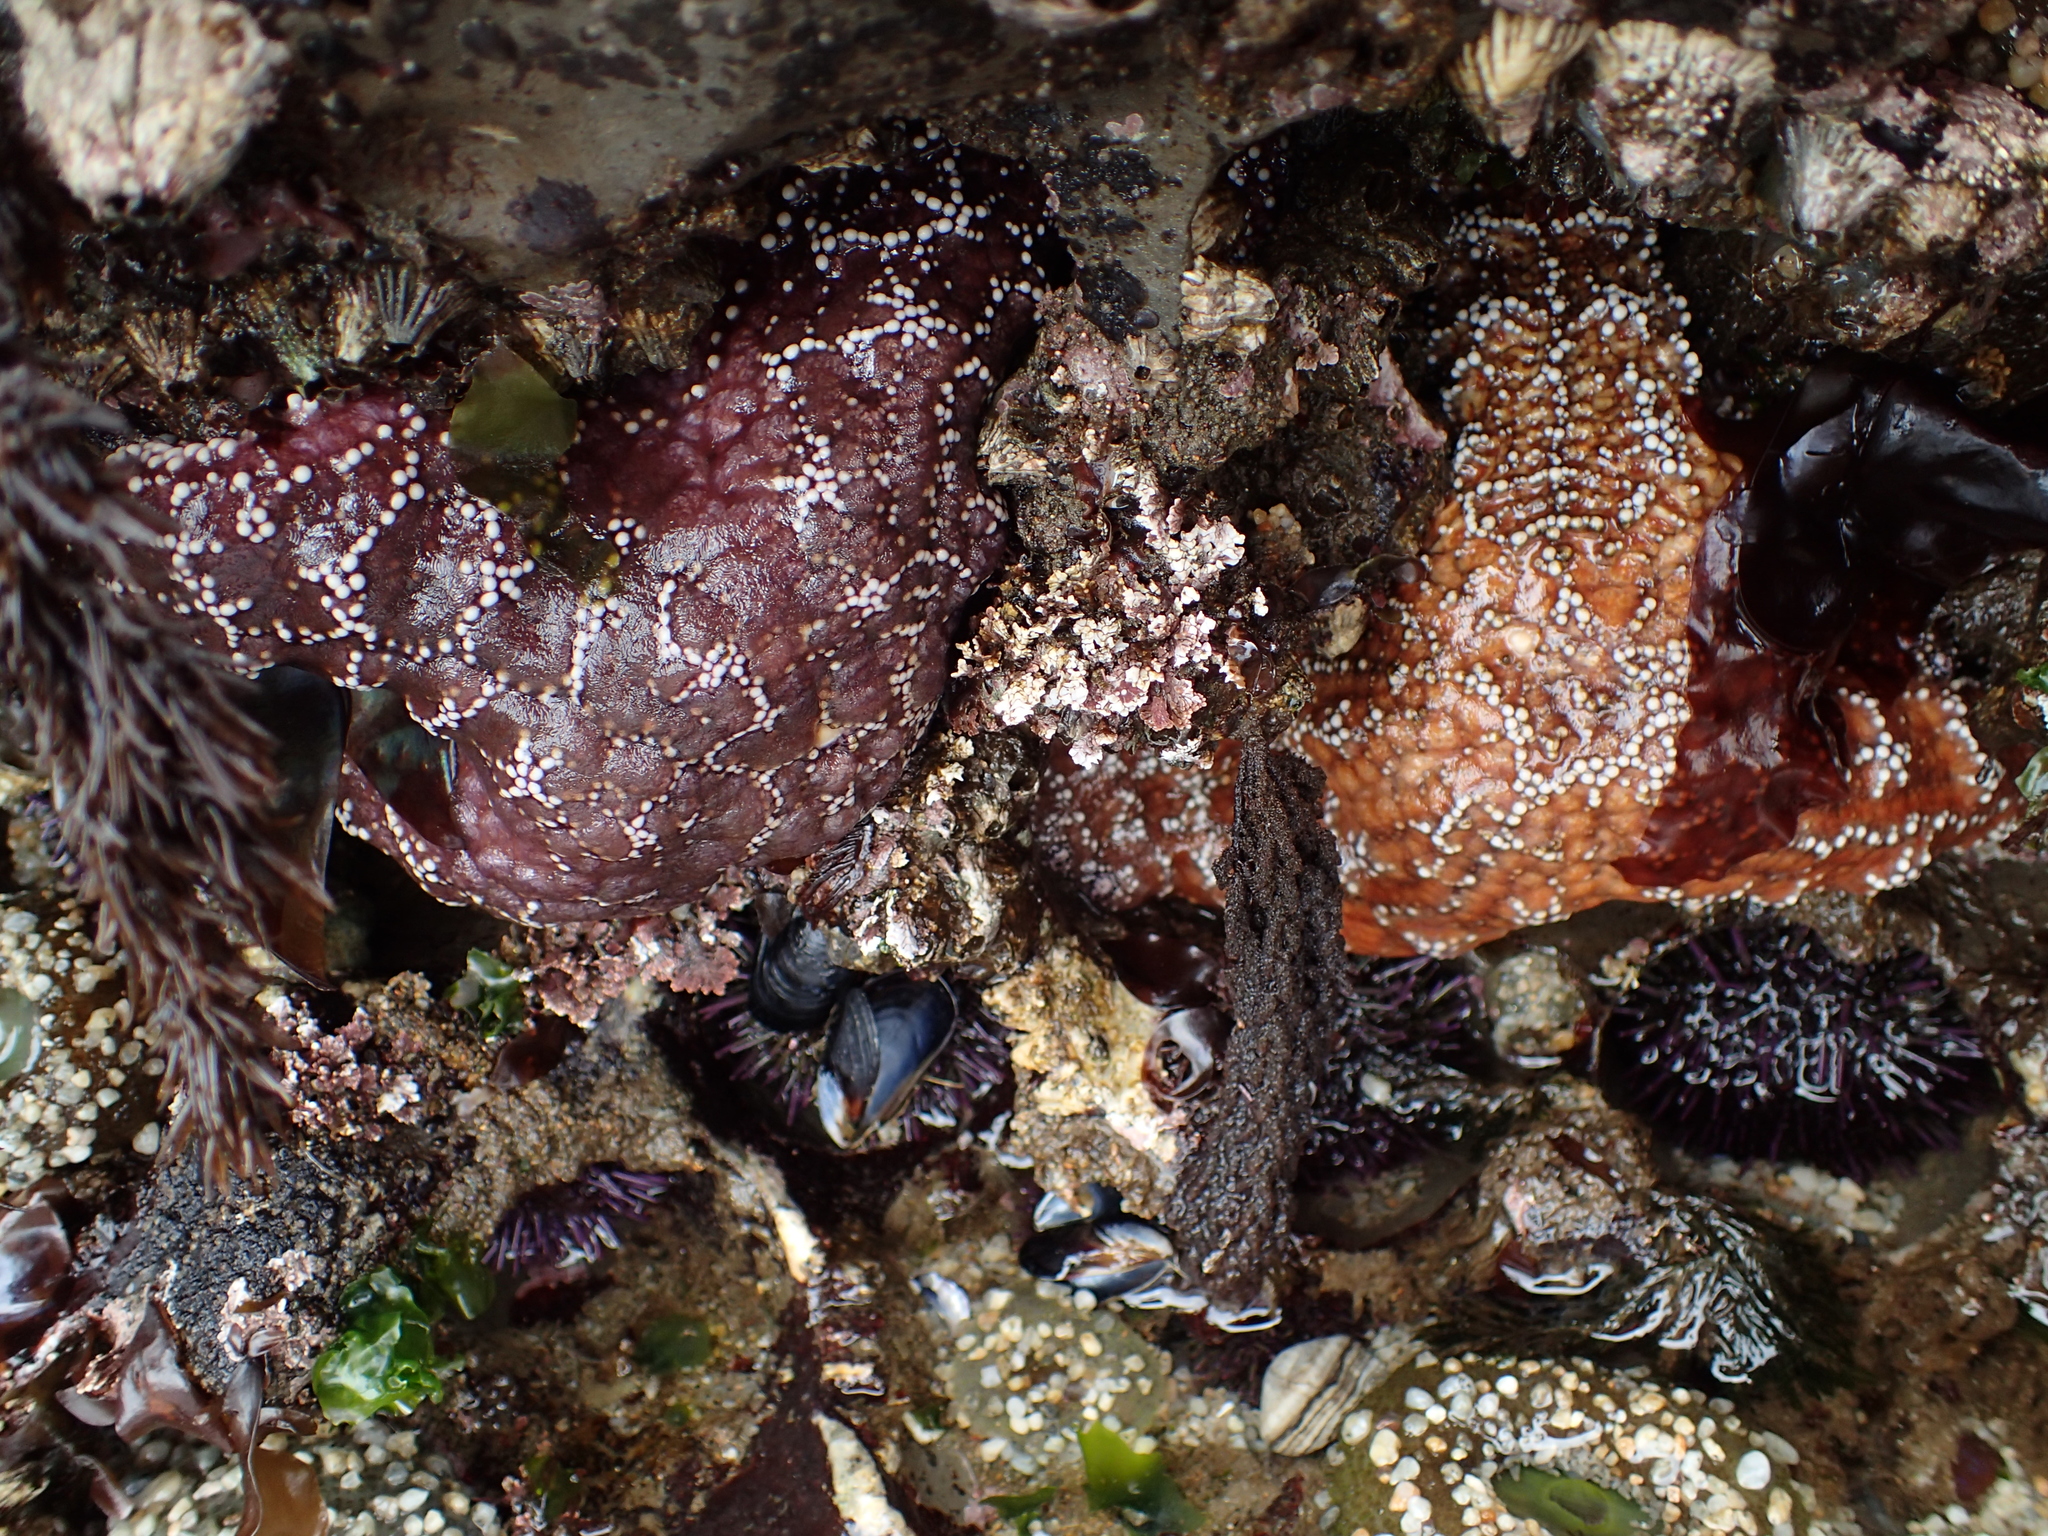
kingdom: Animalia
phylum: Echinodermata
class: Asteroidea
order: Forcipulatida
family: Asteriidae
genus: Pisaster
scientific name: Pisaster ochraceus
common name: Ochre stars
